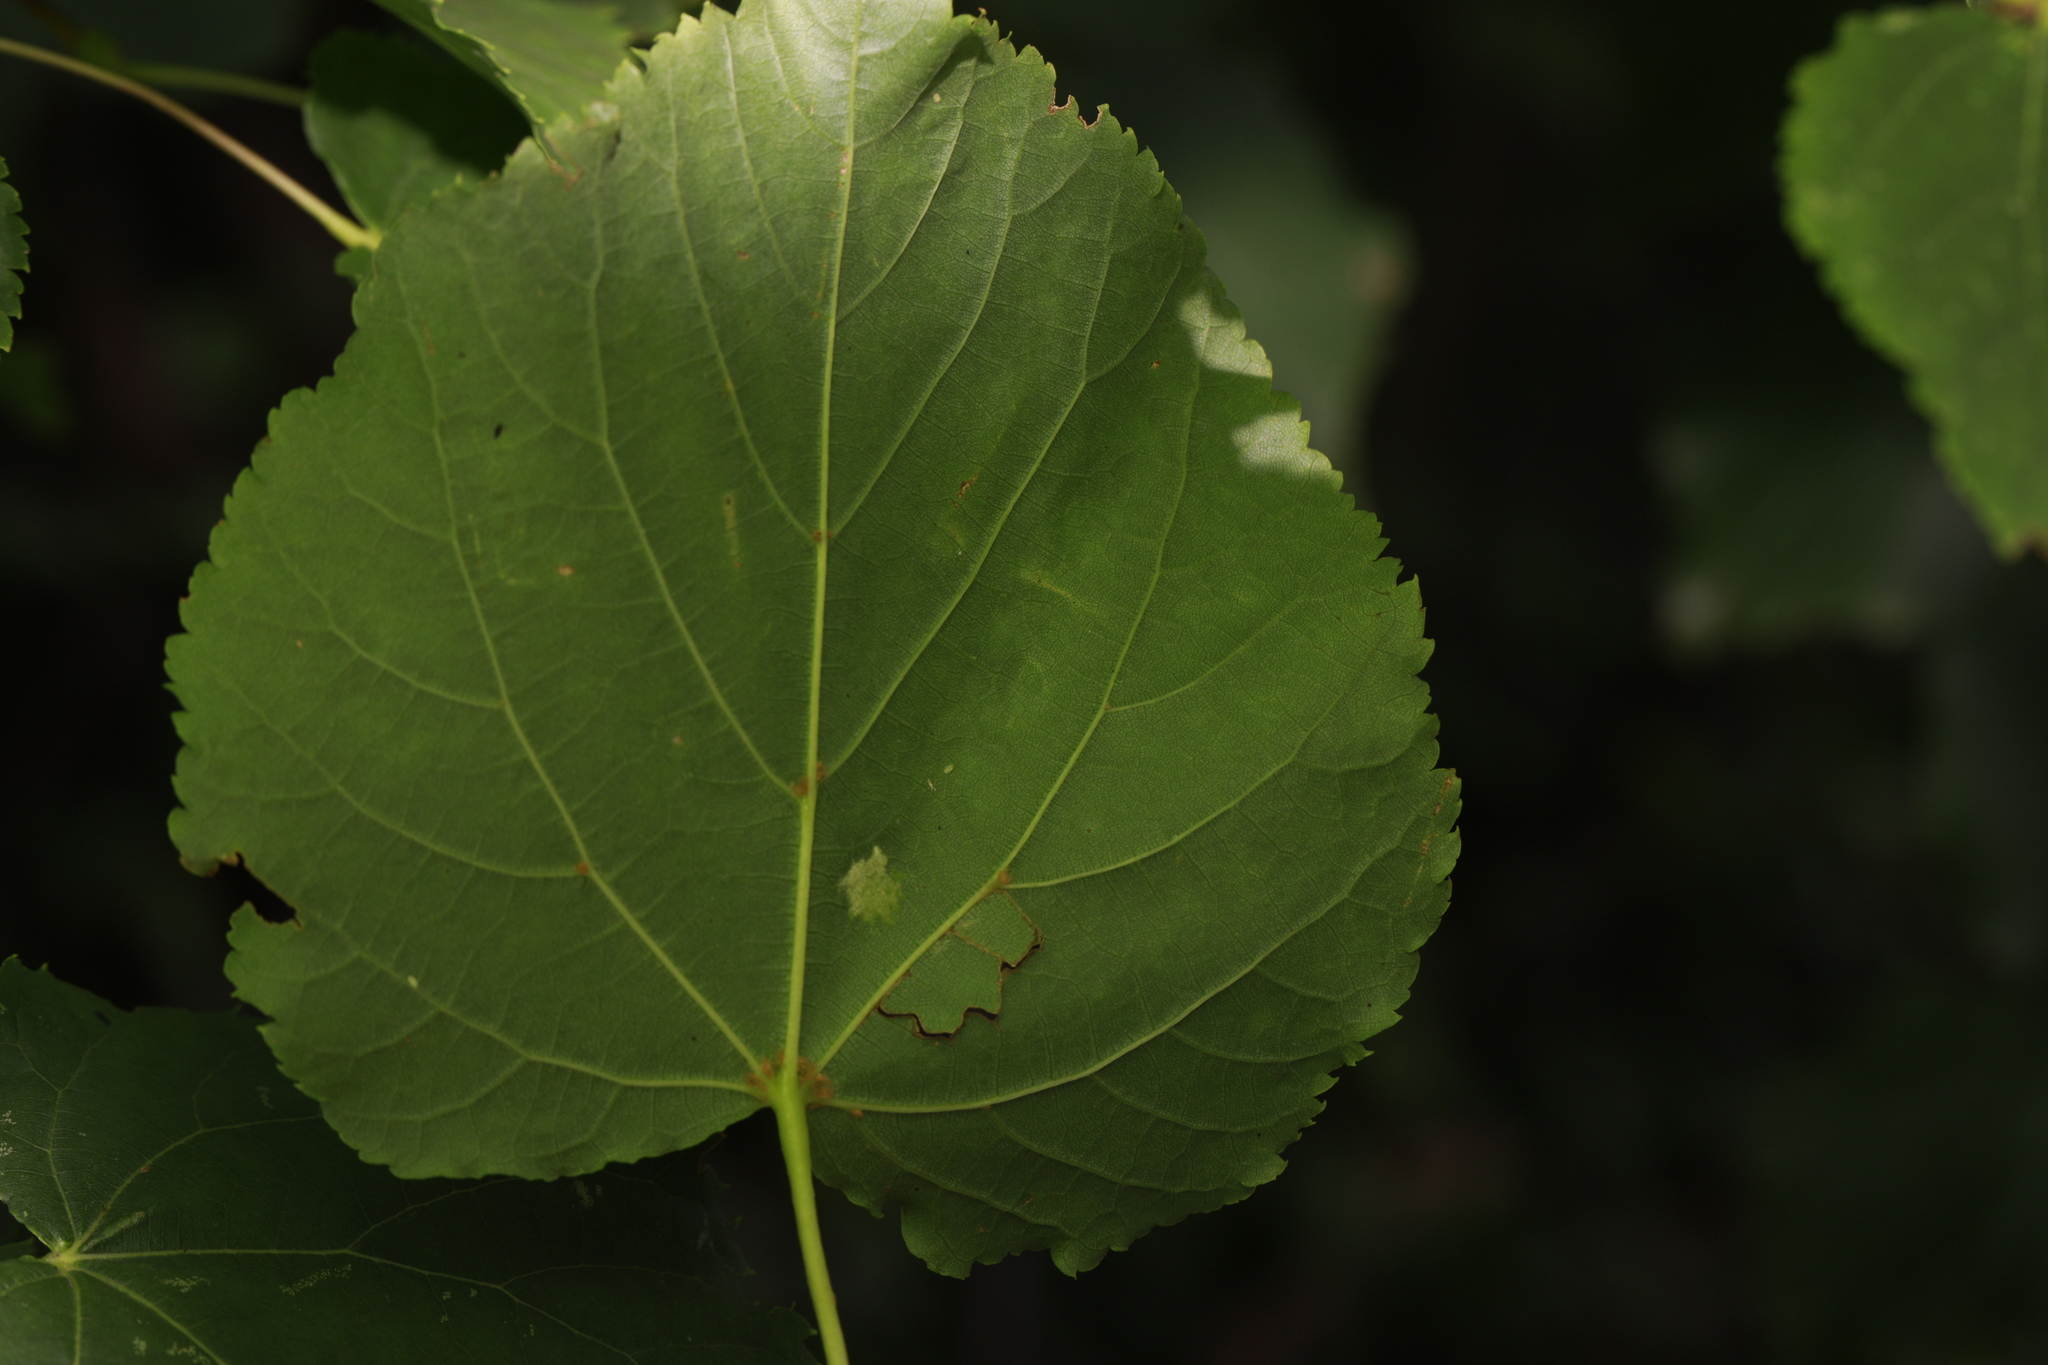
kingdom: Animalia
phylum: Arthropoda
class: Arachnida
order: Trombidiformes
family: Eriophyidae
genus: Eriophyes
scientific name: Eriophyes leiosoma
